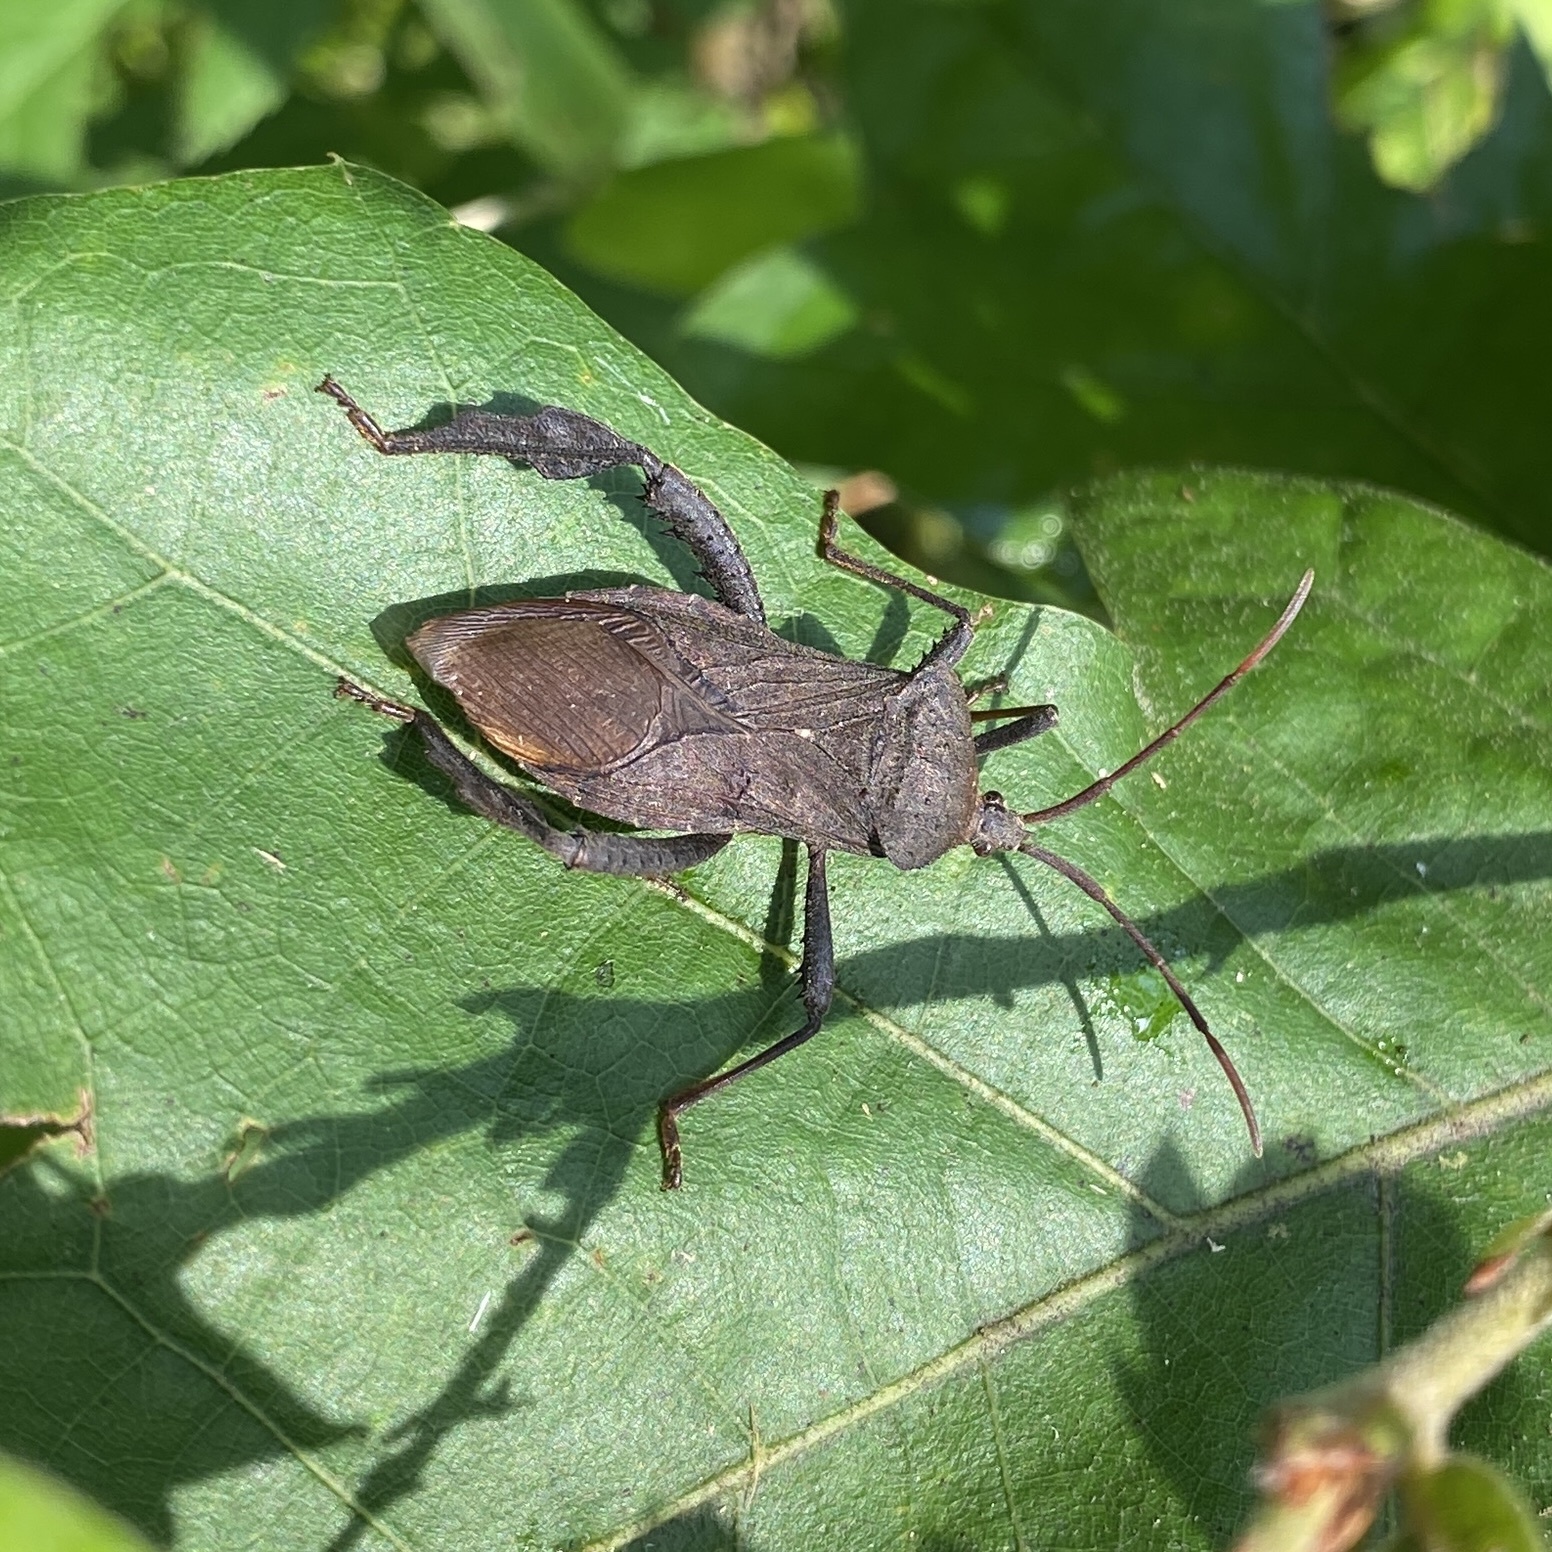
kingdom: Animalia
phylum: Arthropoda
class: Insecta
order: Hemiptera
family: Coreidae
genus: Acanthocephala
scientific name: Acanthocephala femorata
